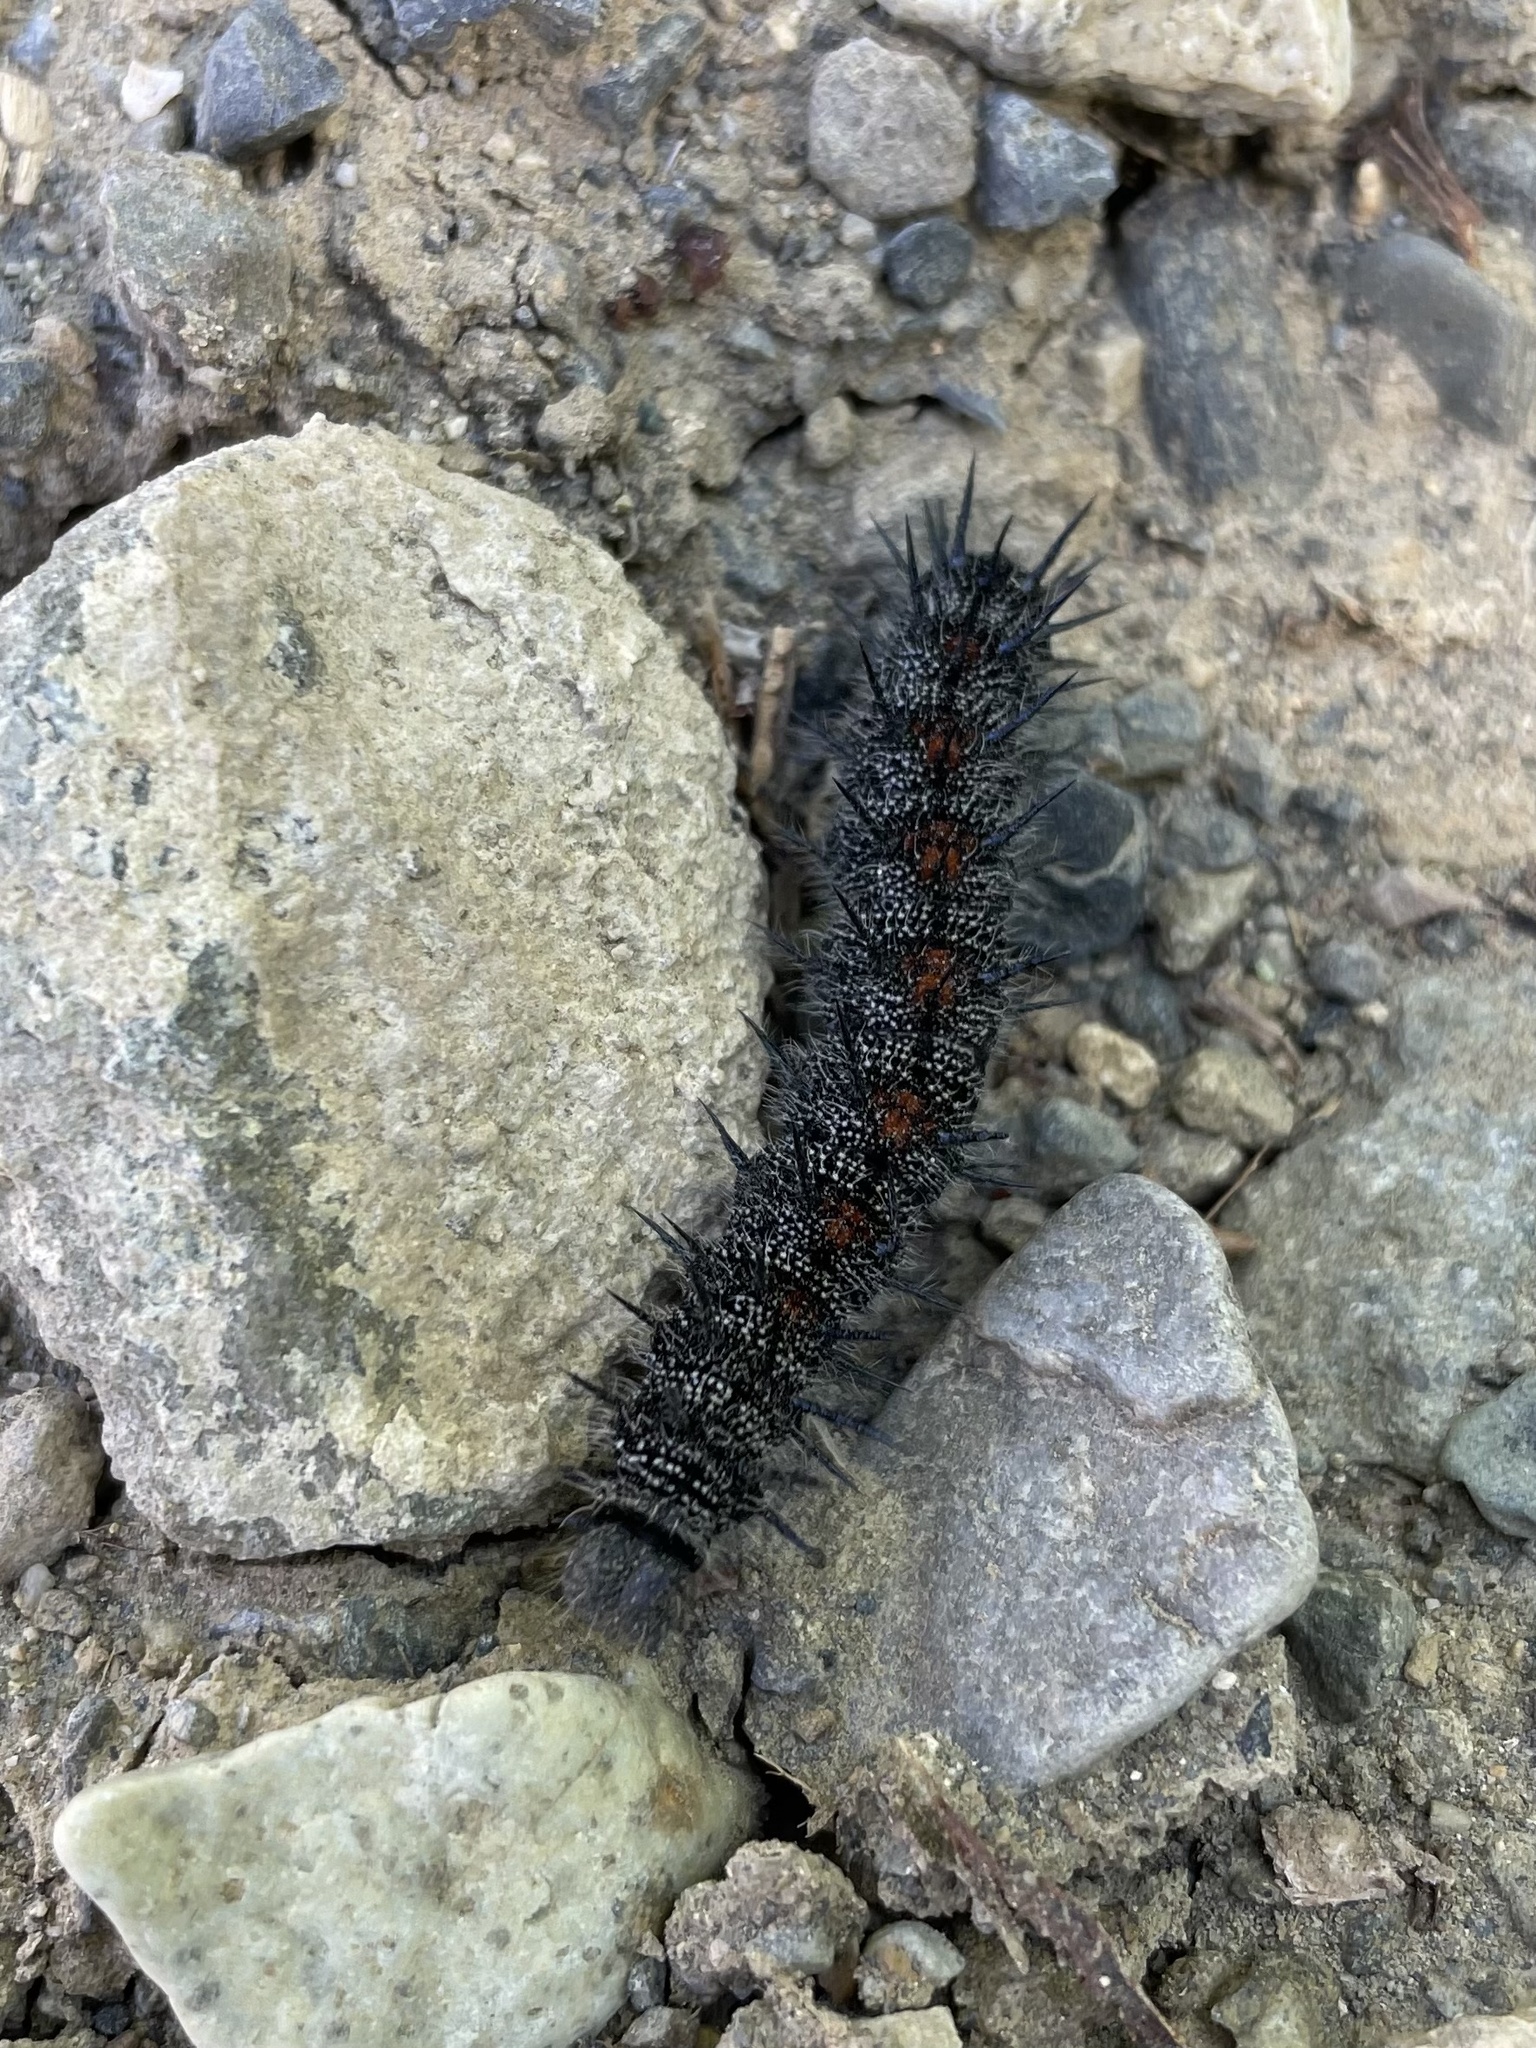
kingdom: Animalia
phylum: Arthropoda
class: Insecta
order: Lepidoptera
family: Nymphalidae
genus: Nymphalis
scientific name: Nymphalis antiopa
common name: Camberwell beauty
